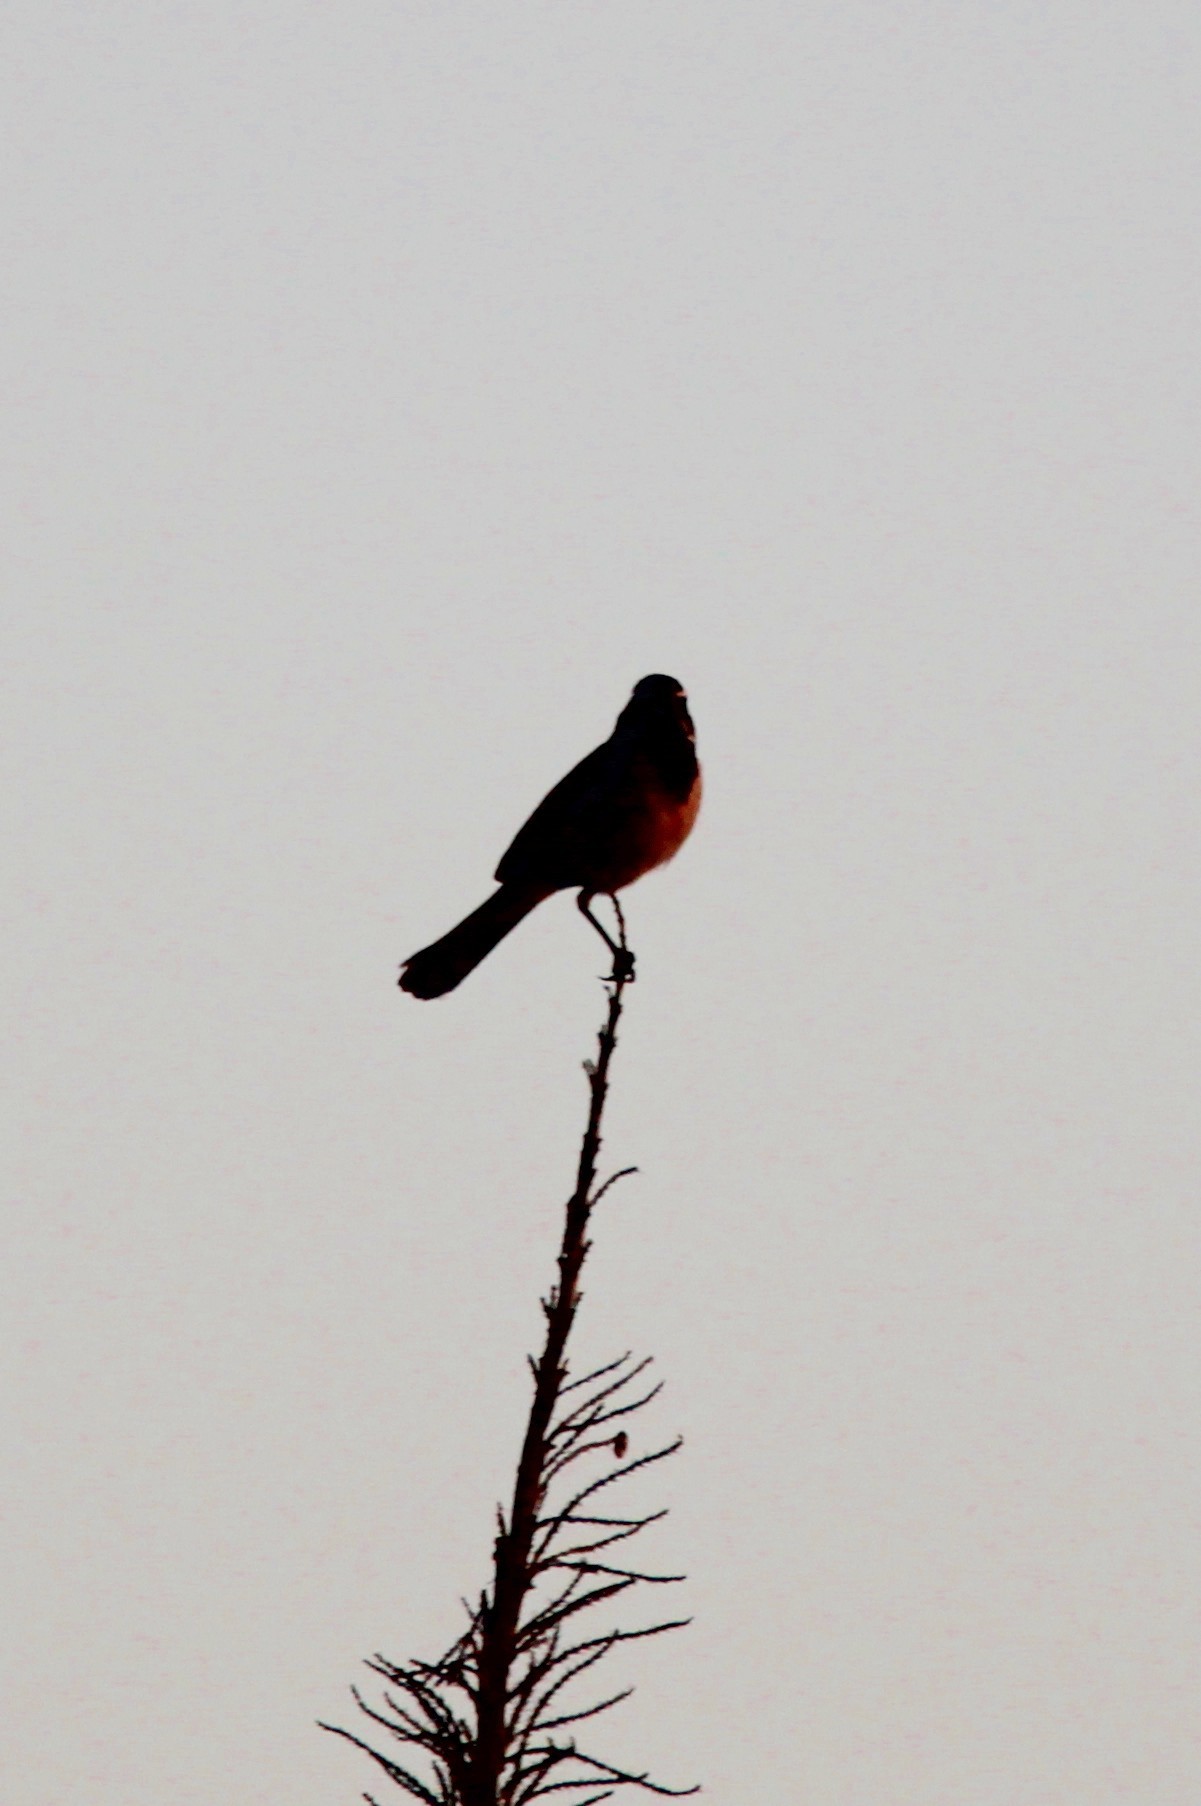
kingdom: Animalia
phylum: Chordata
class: Aves
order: Passeriformes
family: Passerellidae
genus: Amphispiza
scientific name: Amphispiza bilineata
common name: Black-throated sparrow
